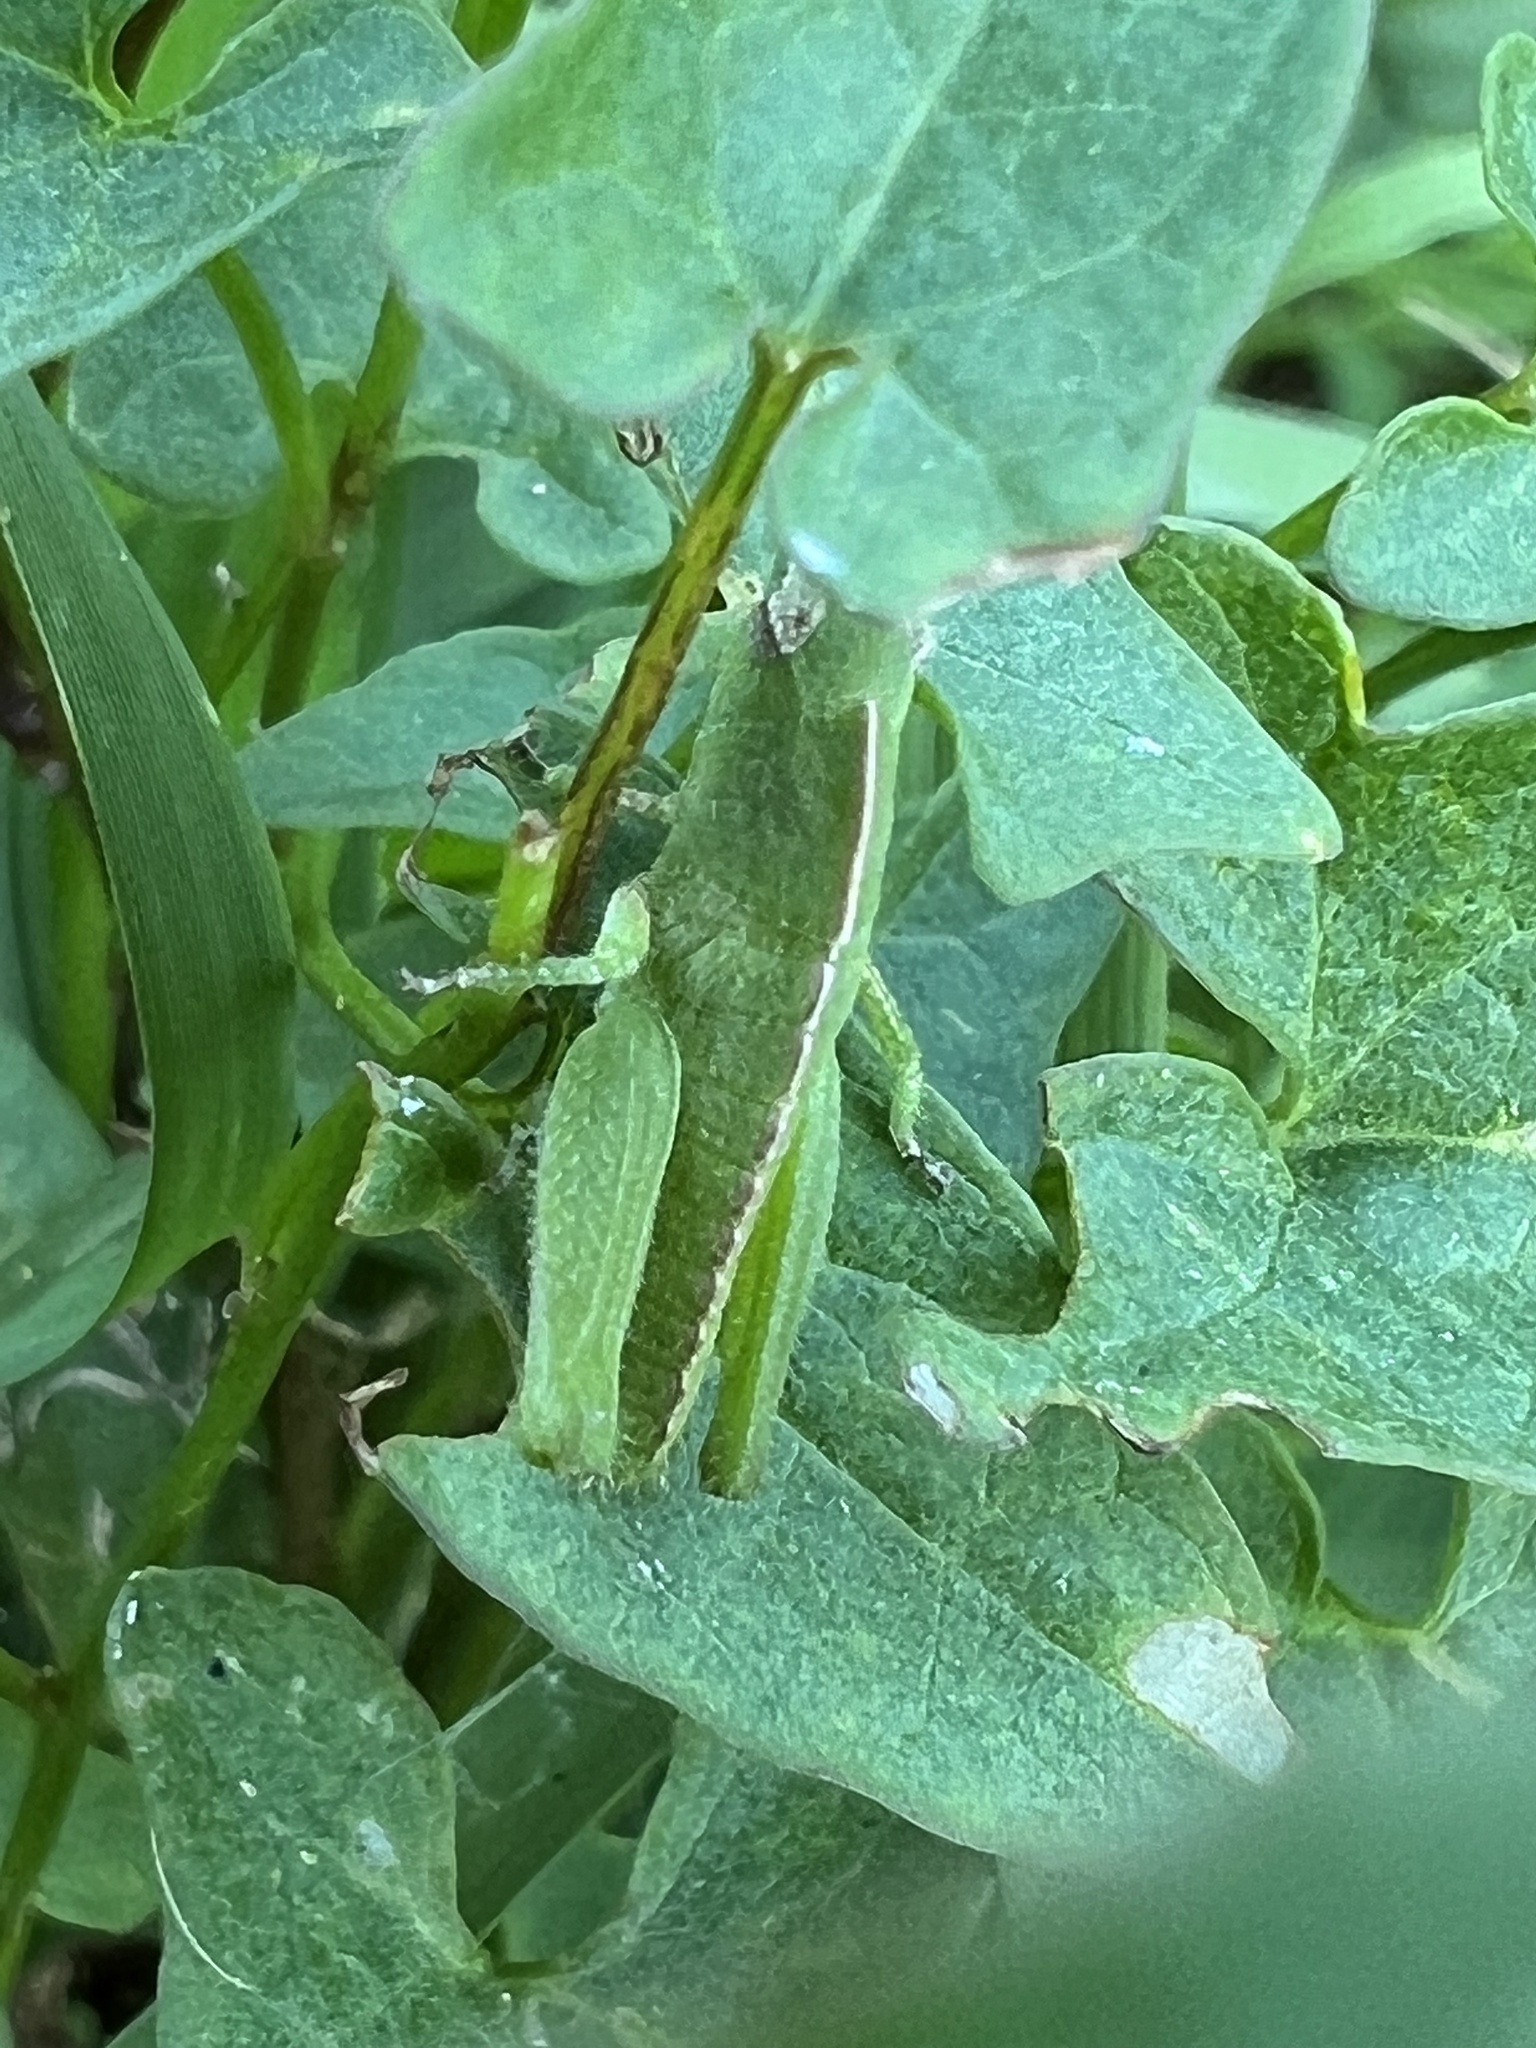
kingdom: Animalia
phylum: Arthropoda
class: Insecta
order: Orthoptera
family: Acrididae
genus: Chortophaga
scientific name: Chortophaga viridifasciata
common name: Green-striped grasshopper
